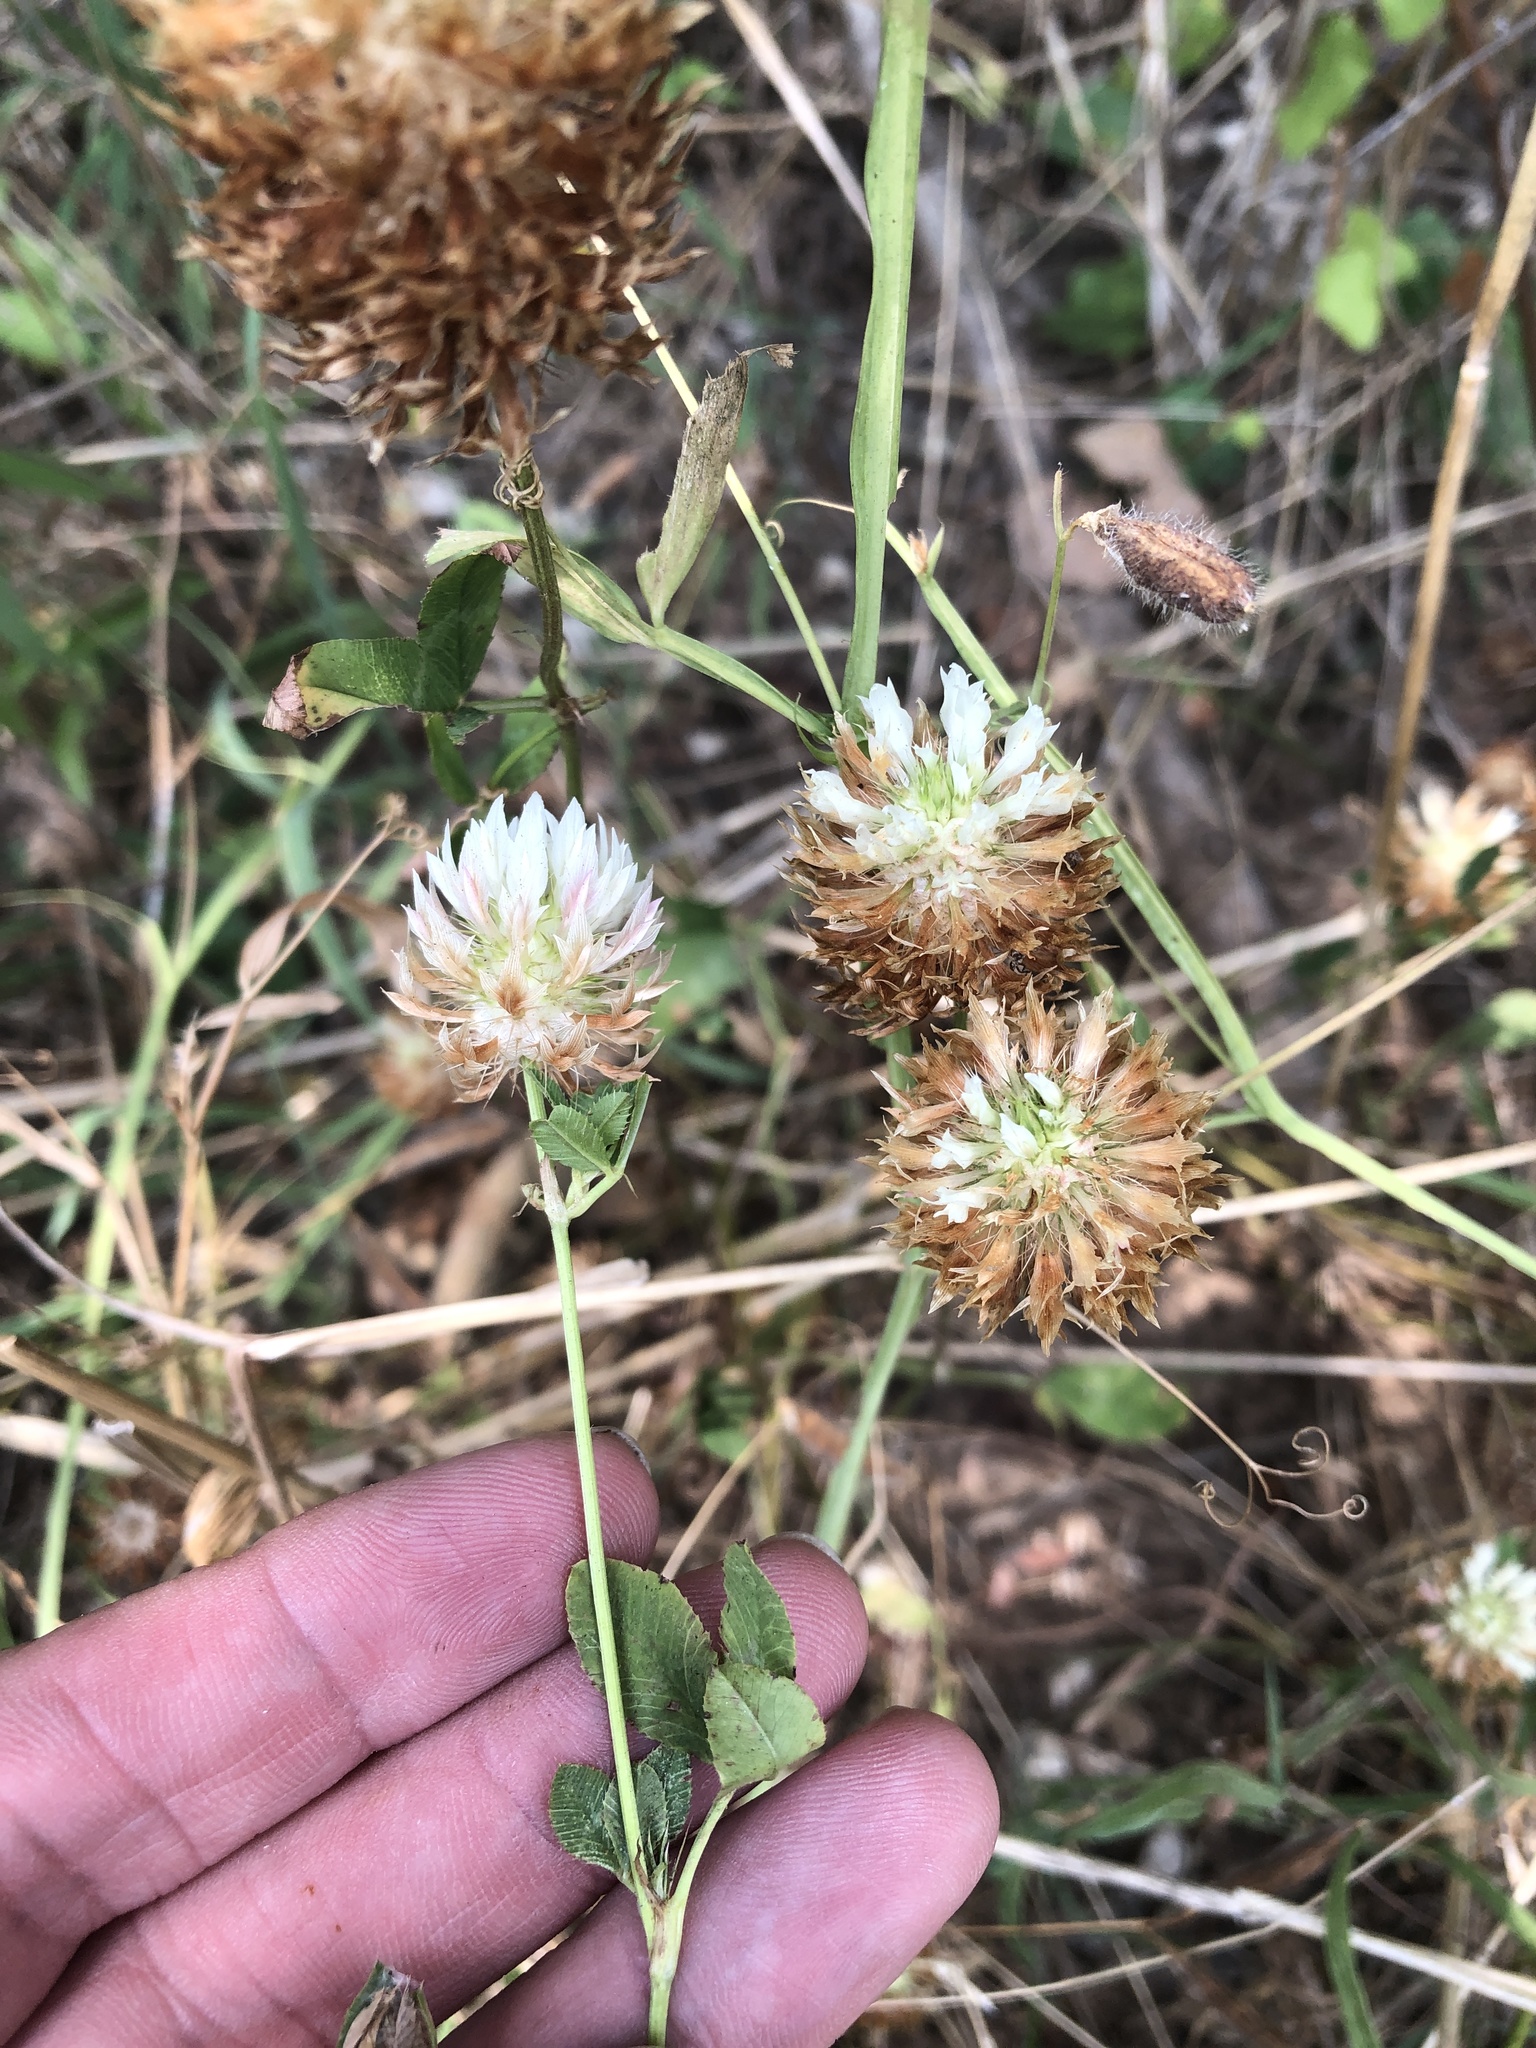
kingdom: Plantae
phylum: Tracheophyta
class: Magnoliopsida
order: Fabales
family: Fabaceae
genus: Trifolium
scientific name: Trifolium vesiculosum
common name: Arrowleaf clover
